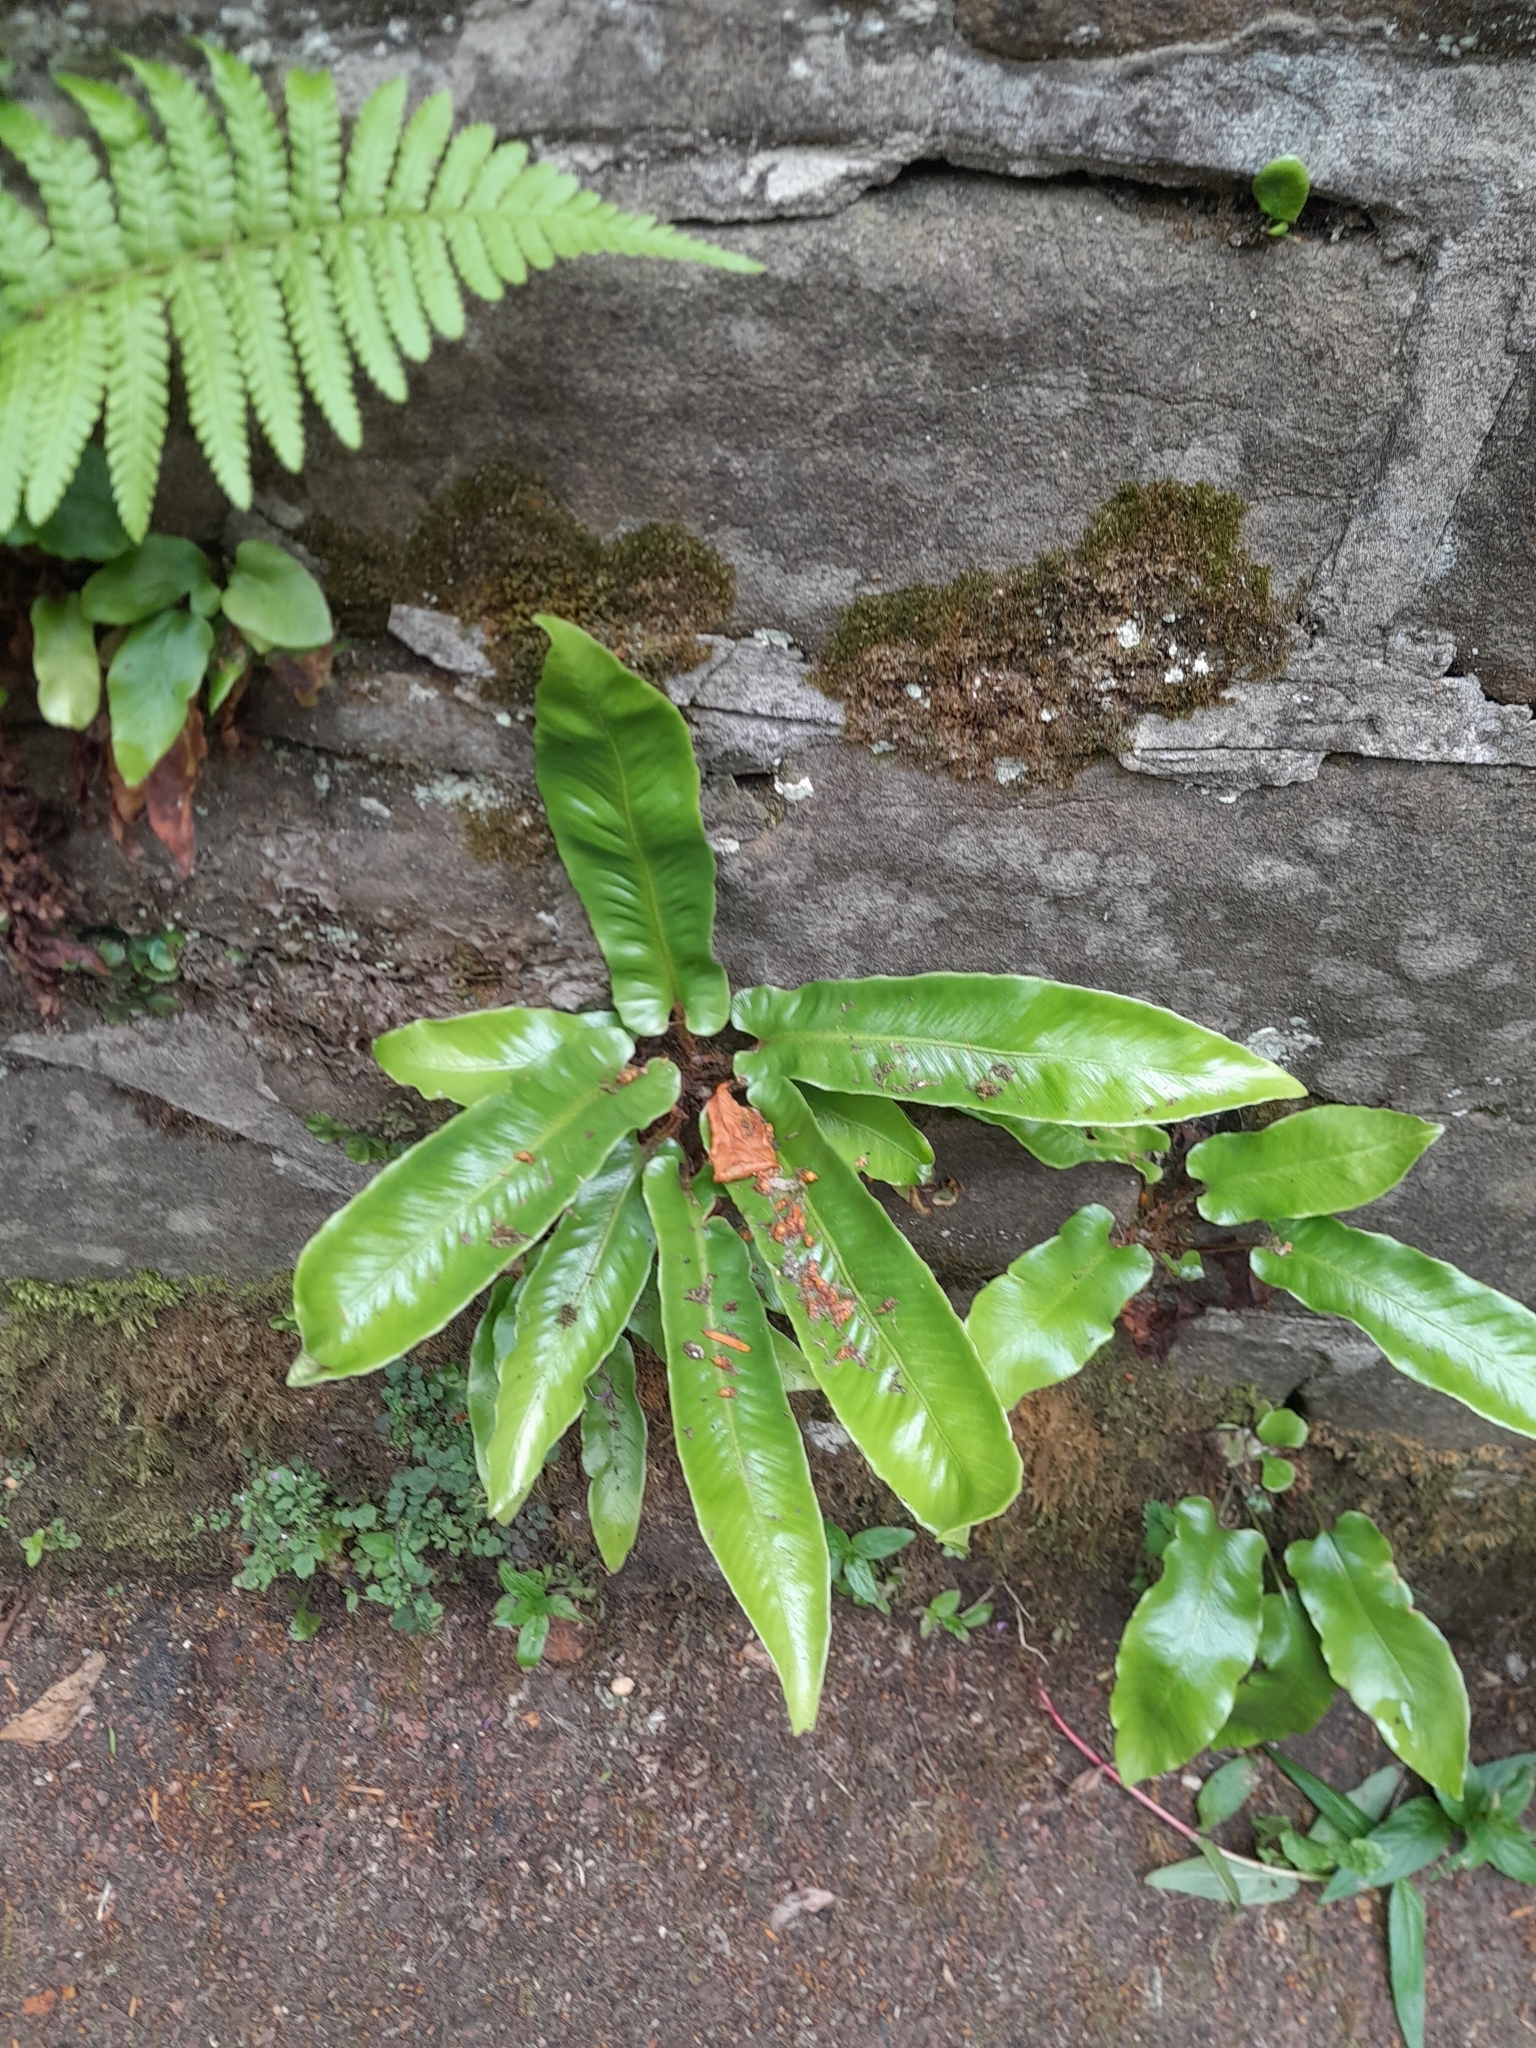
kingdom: Plantae
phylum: Tracheophyta
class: Polypodiopsida
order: Polypodiales
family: Aspleniaceae
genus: Asplenium
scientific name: Asplenium scolopendrium
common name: Hart's-tongue fern
